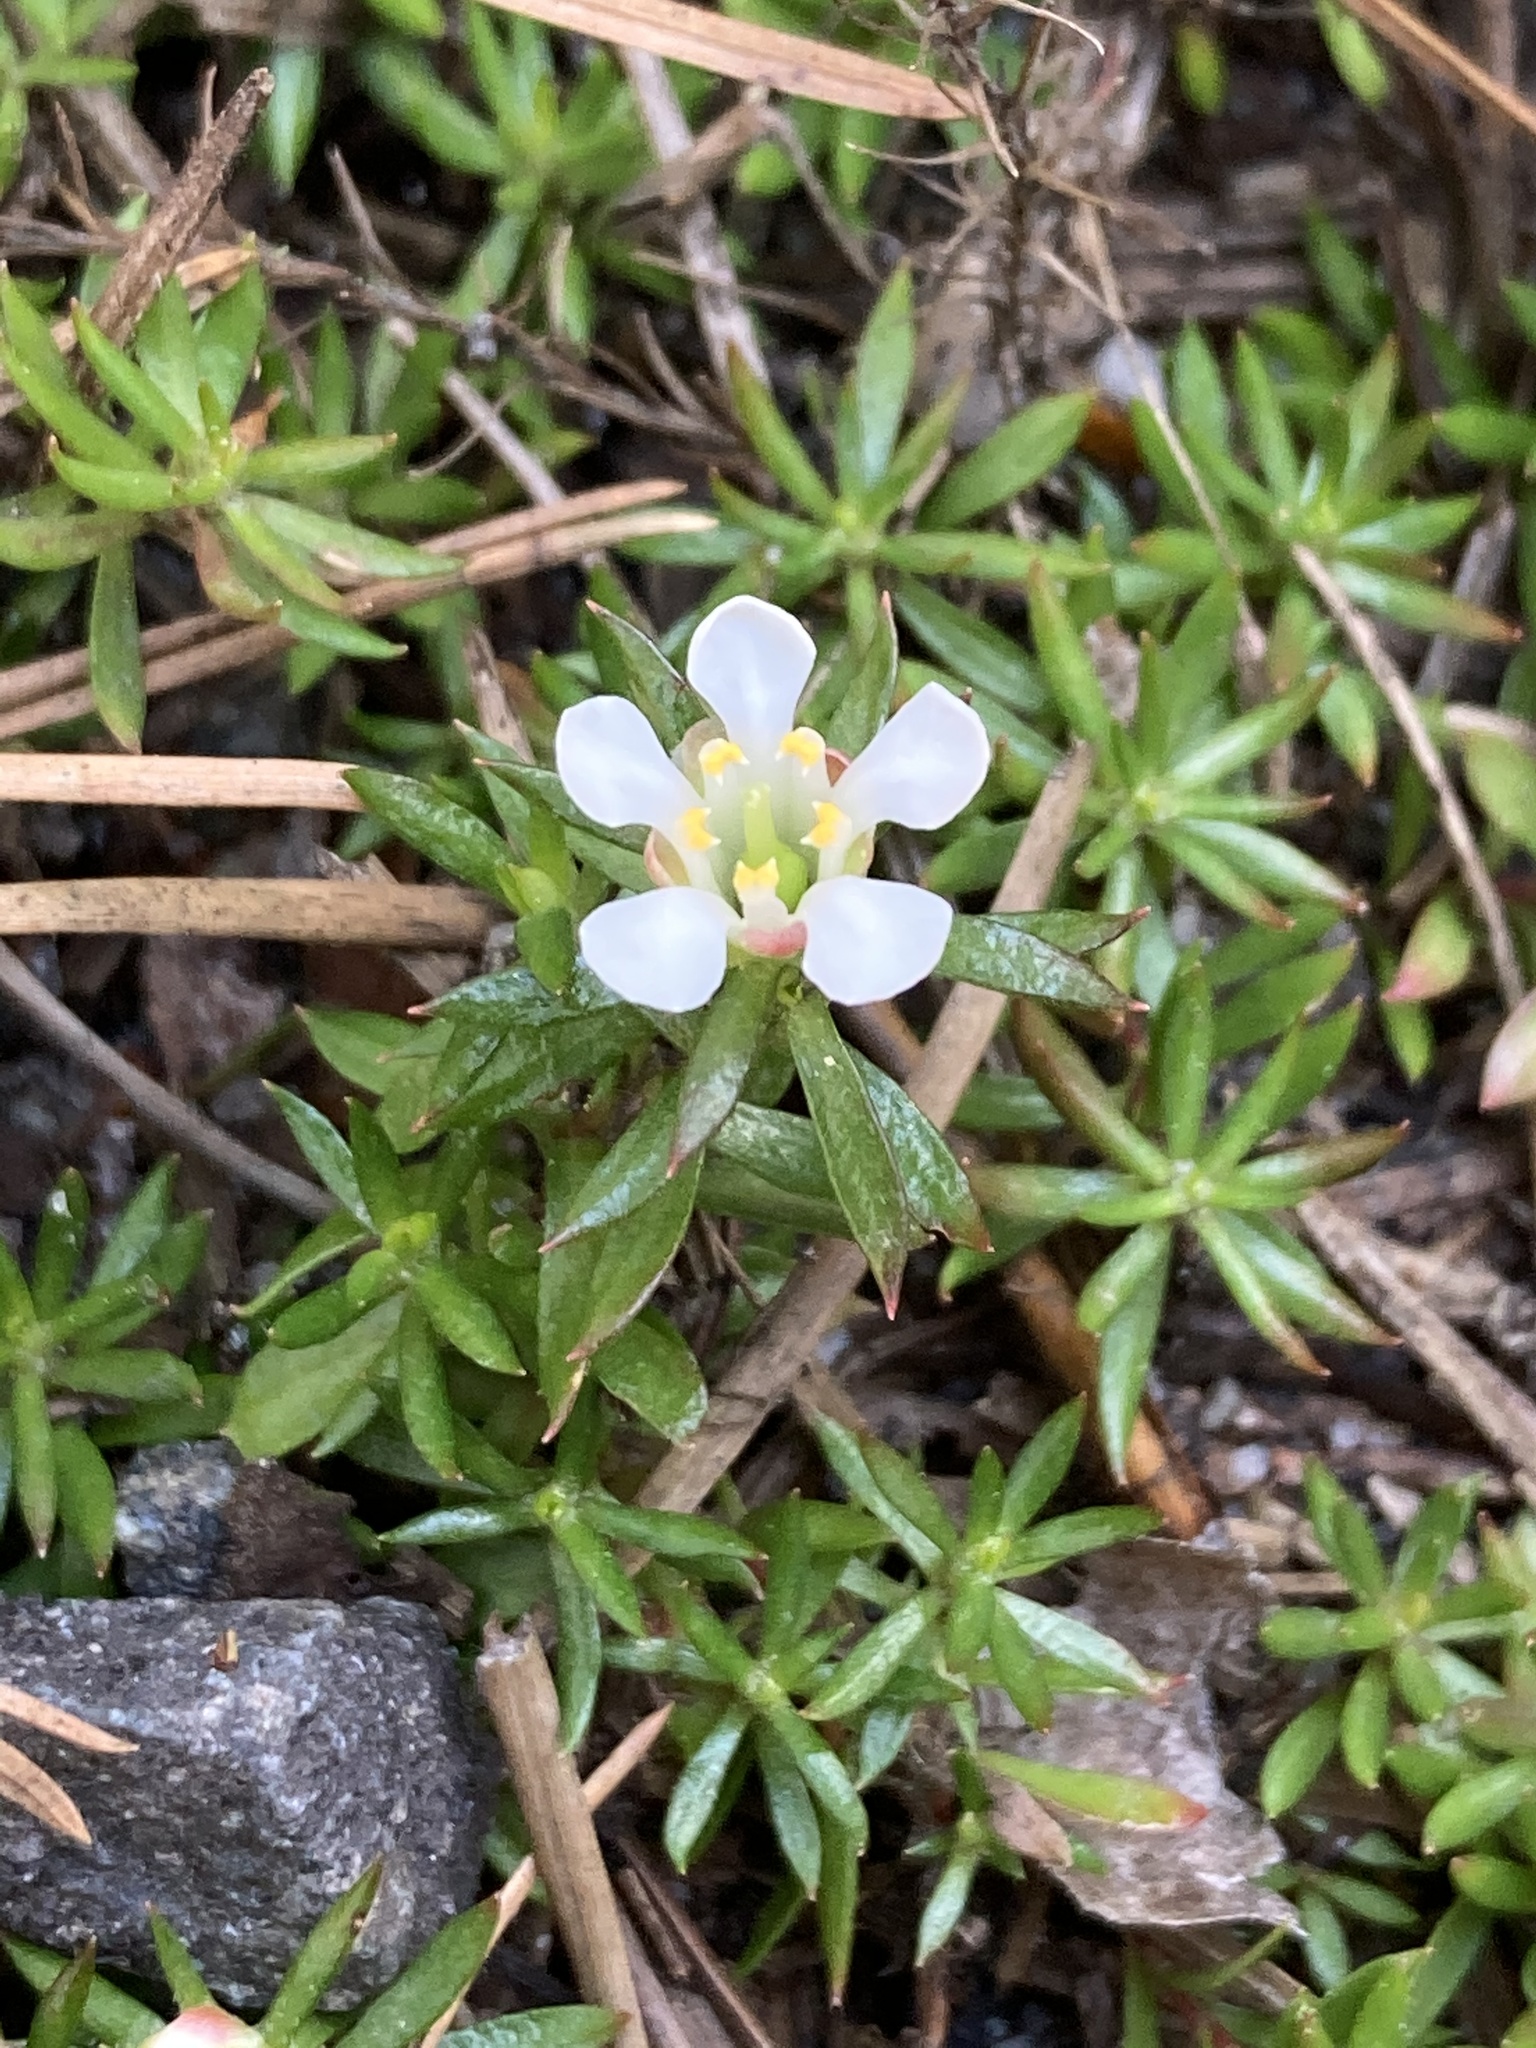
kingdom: Plantae
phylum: Tracheophyta
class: Magnoliopsida
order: Ericales
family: Diapensiaceae
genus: Pyxidanthera
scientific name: Pyxidanthera barbulata
